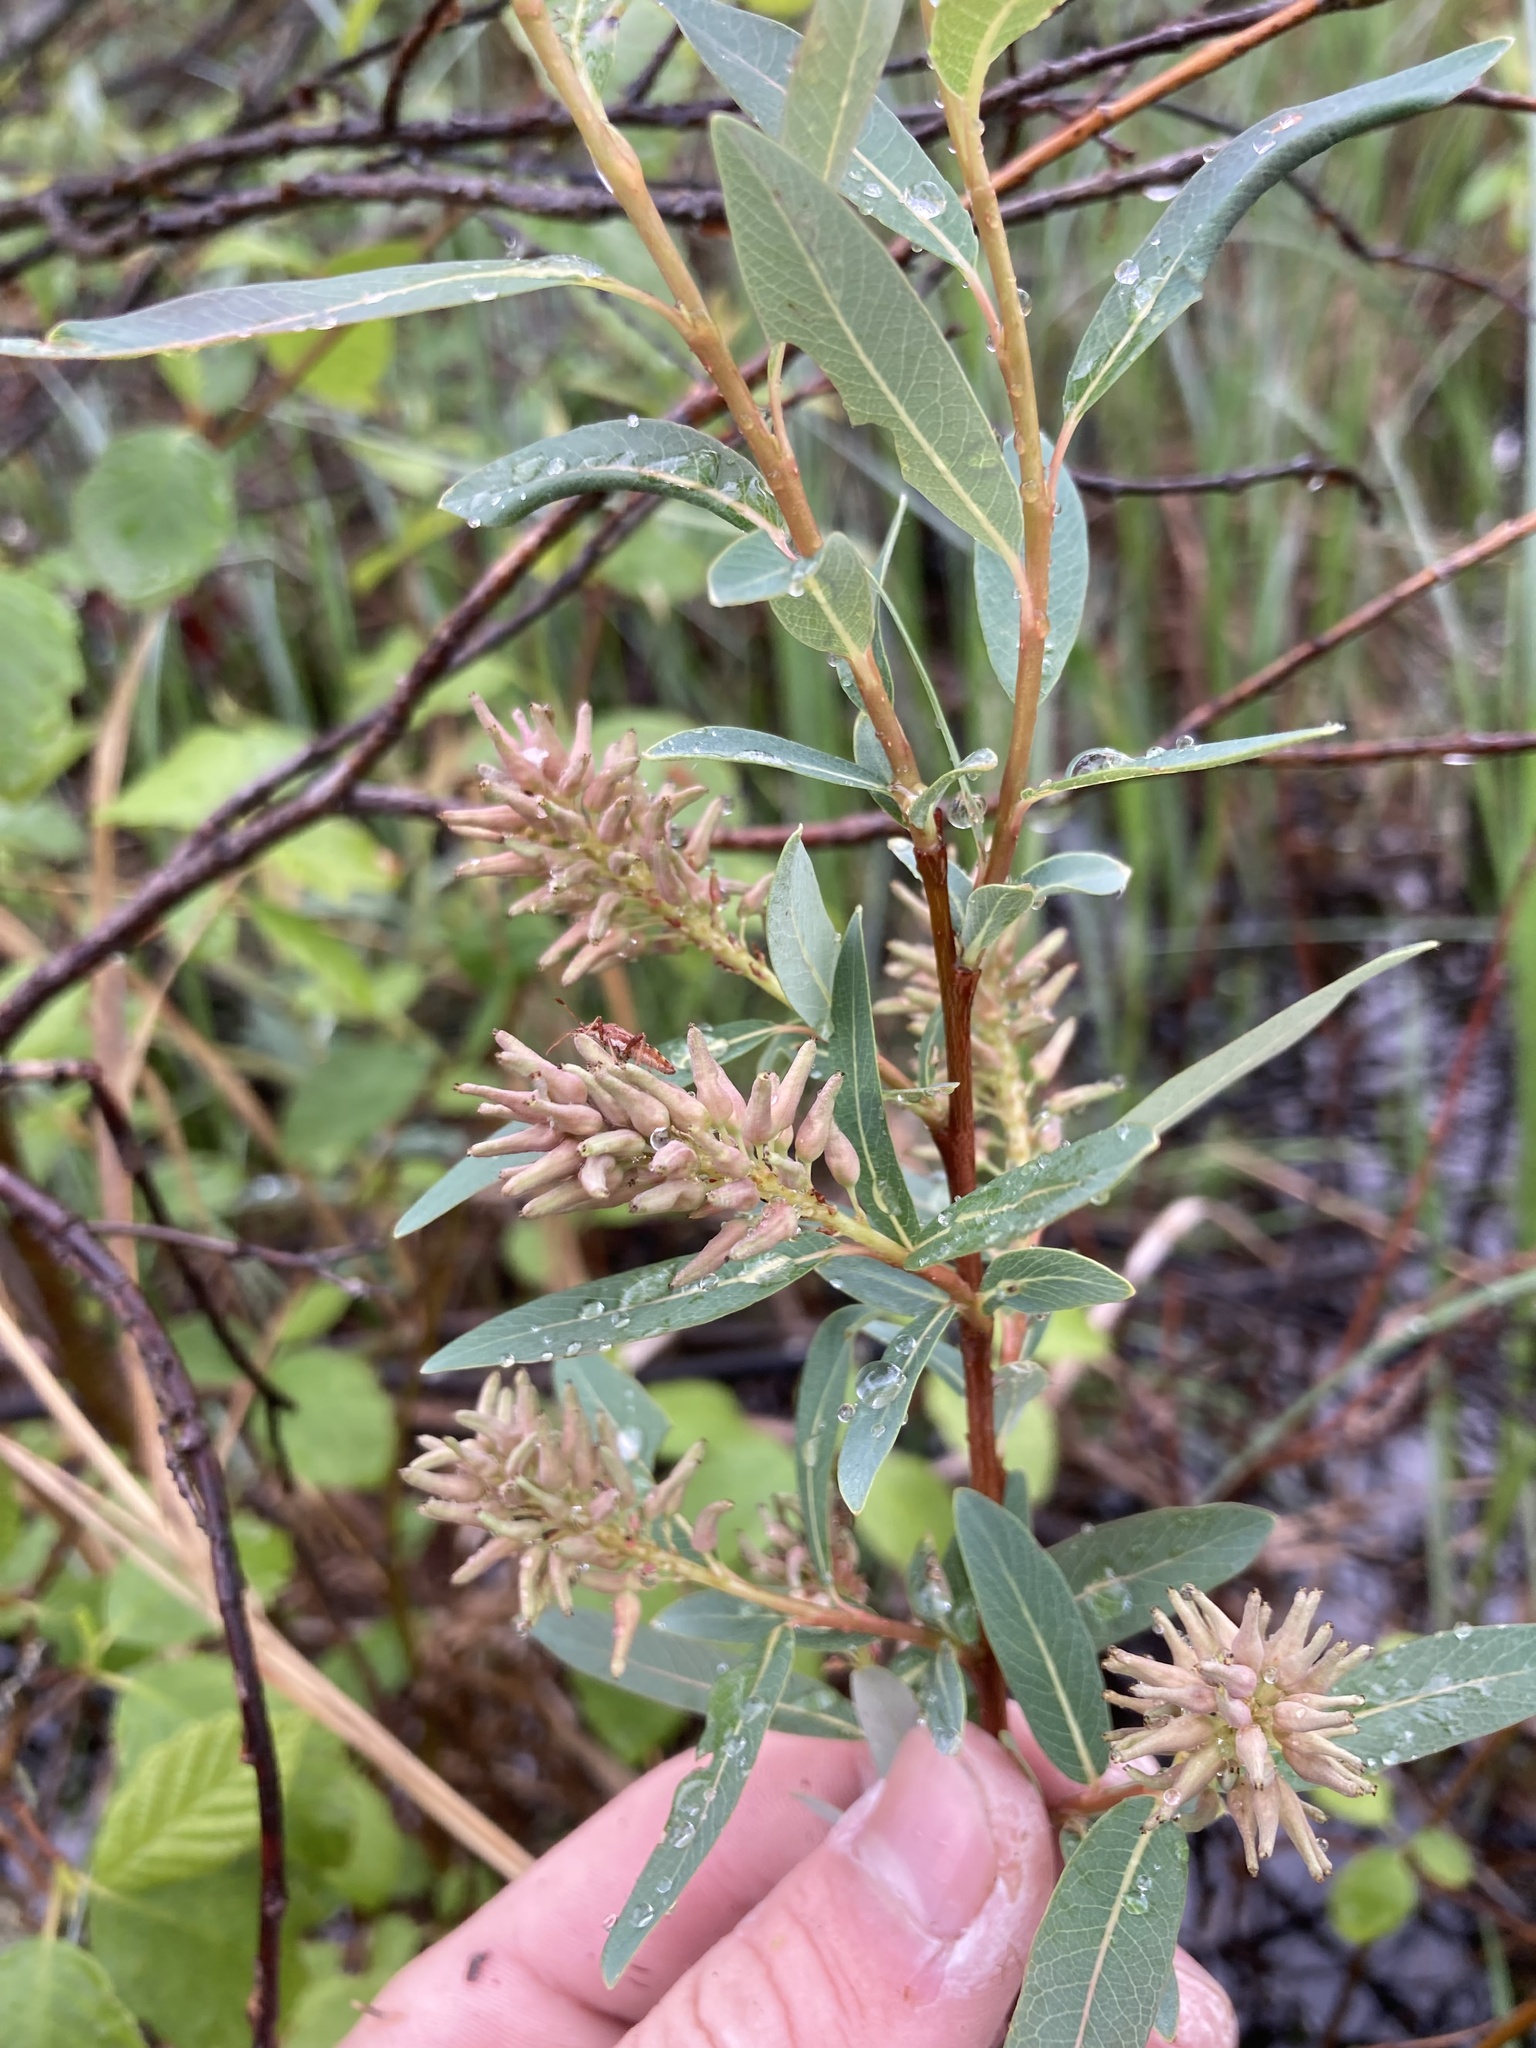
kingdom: Plantae
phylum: Tracheophyta
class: Magnoliopsida
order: Malpighiales
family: Salicaceae
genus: Salix
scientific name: Salix pedicellaris
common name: Bog willow
